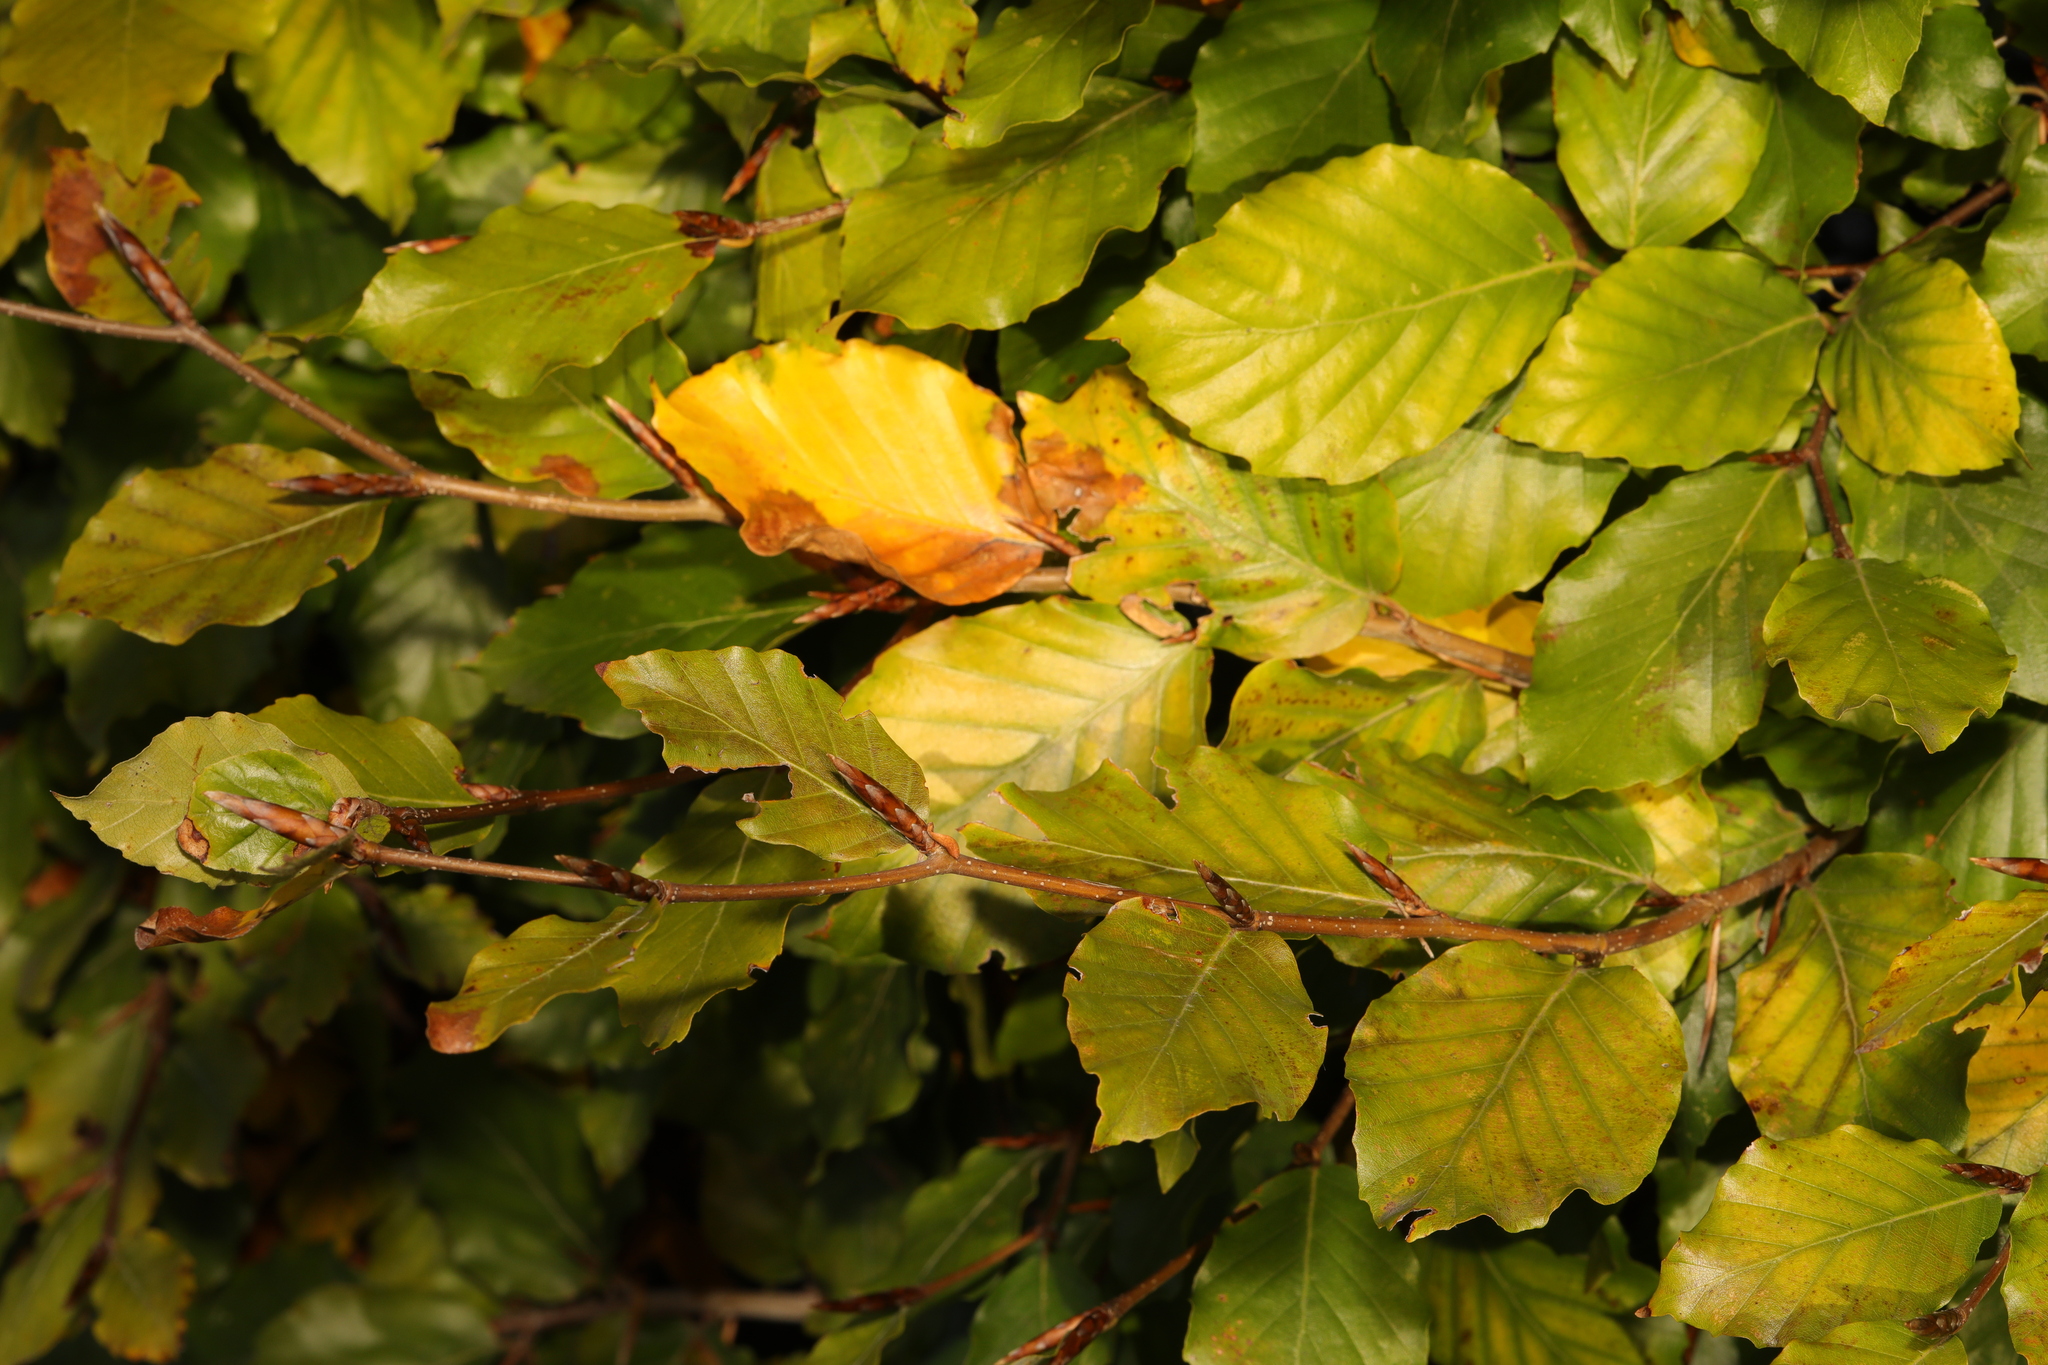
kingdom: Plantae
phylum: Tracheophyta
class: Magnoliopsida
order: Fagales
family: Fagaceae
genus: Fagus
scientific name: Fagus sylvatica
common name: Beech
